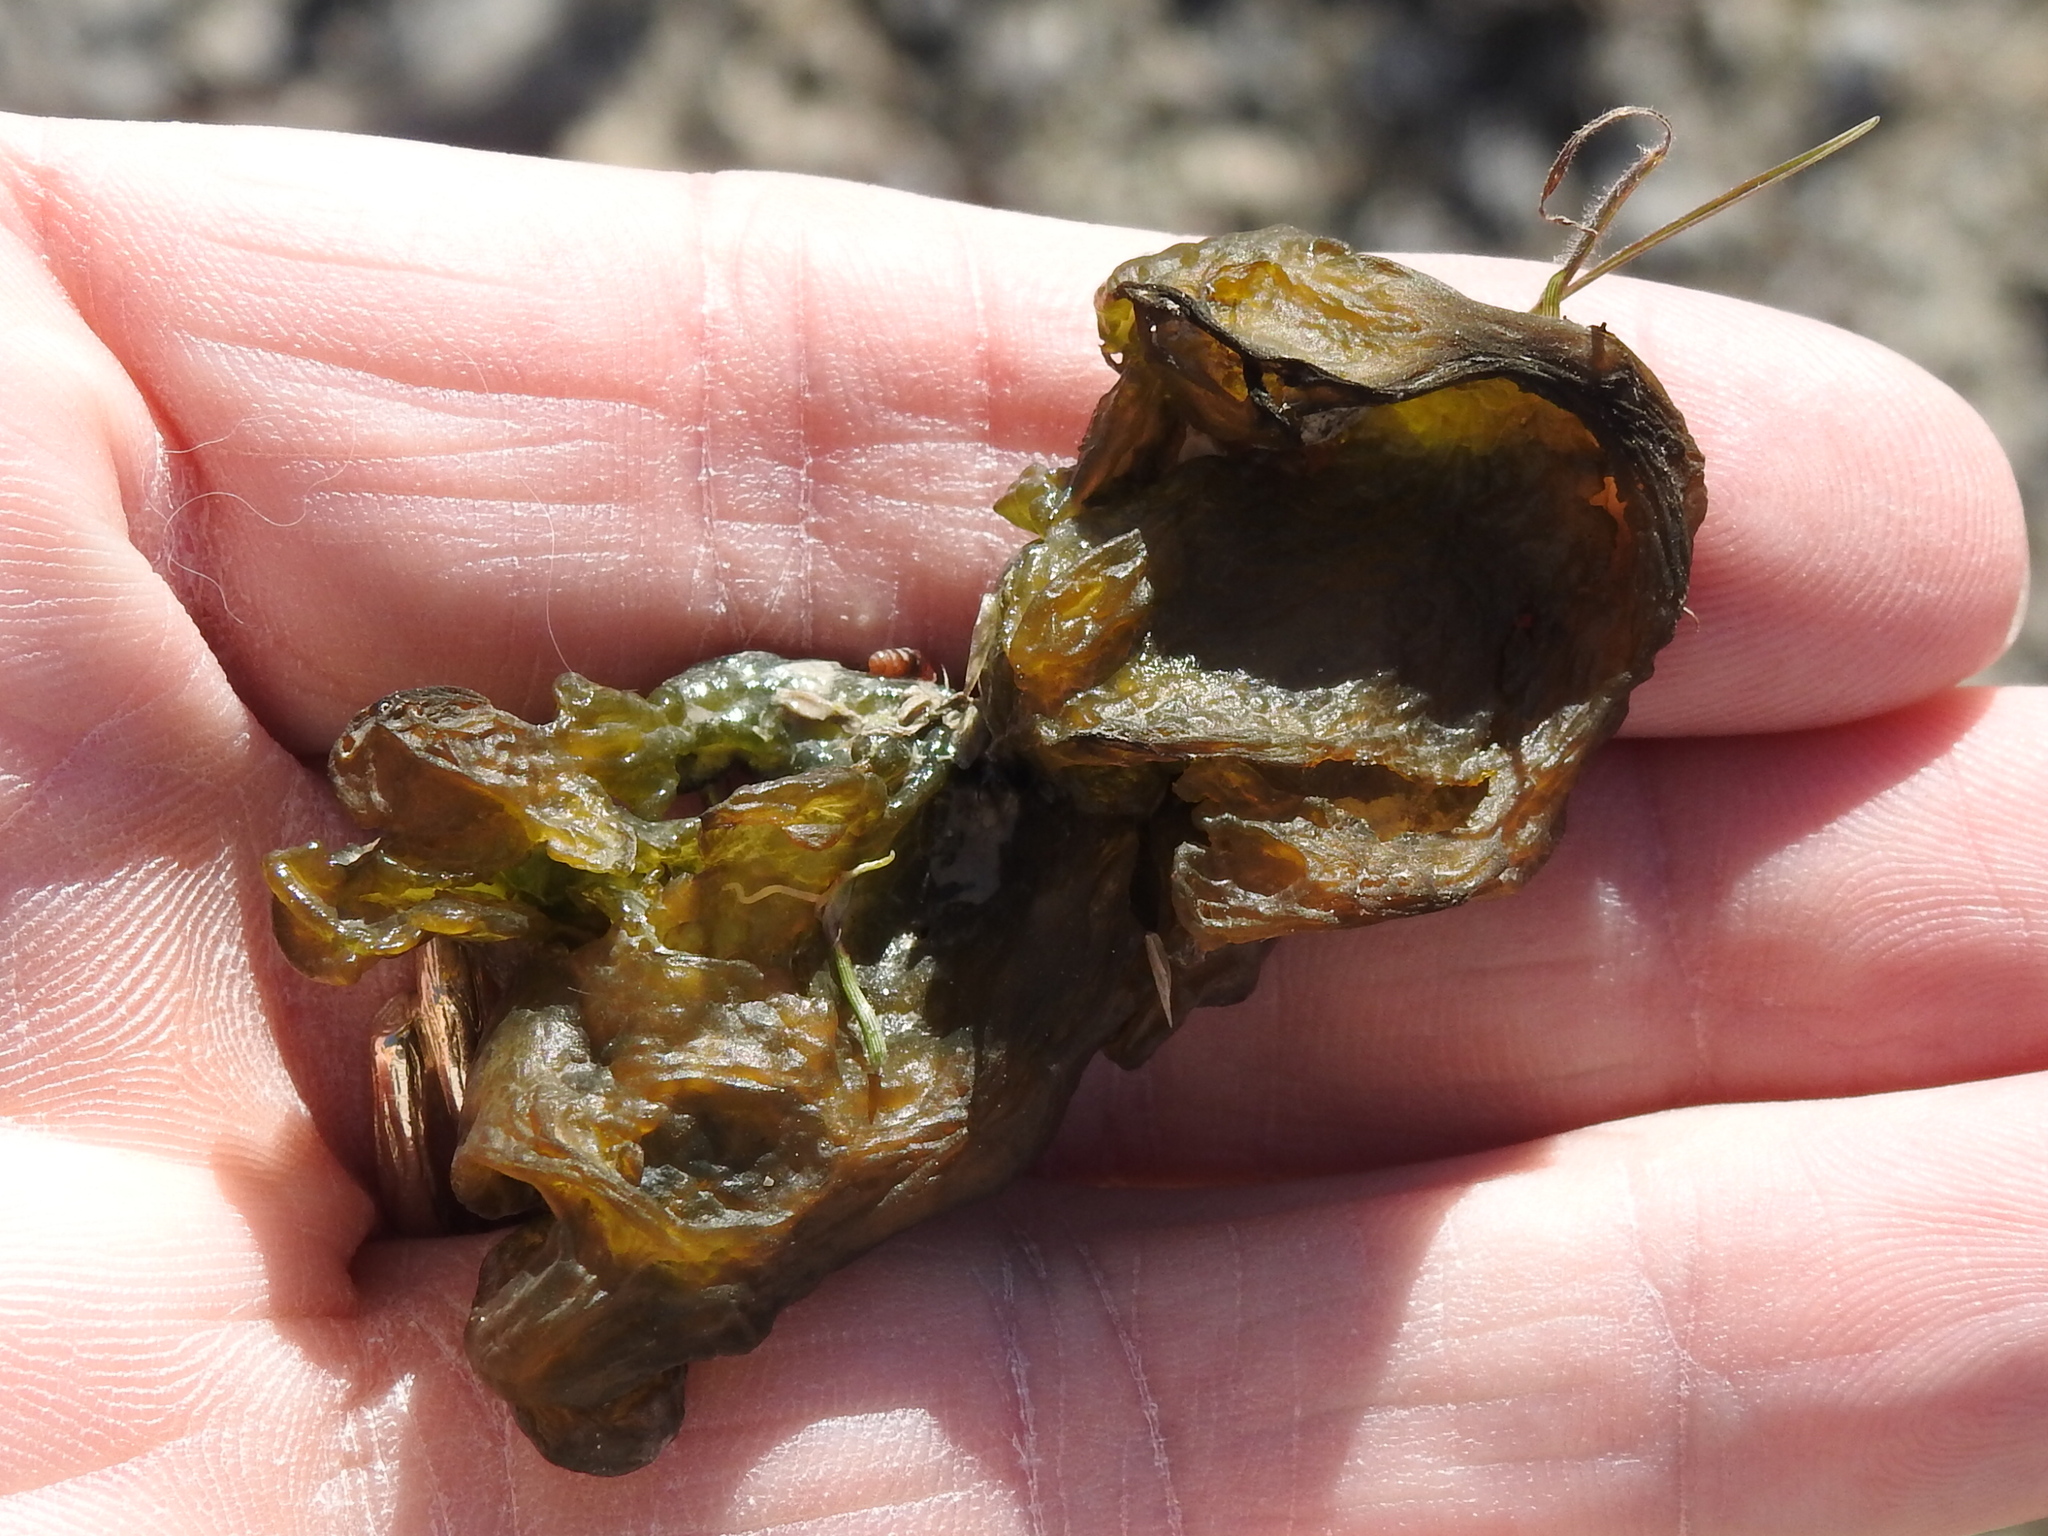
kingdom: Bacteria
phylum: Cyanobacteria
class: Cyanobacteriia
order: Cyanobacteriales
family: Nostocaceae
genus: Nostoc
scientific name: Nostoc commune
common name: Star jelly
